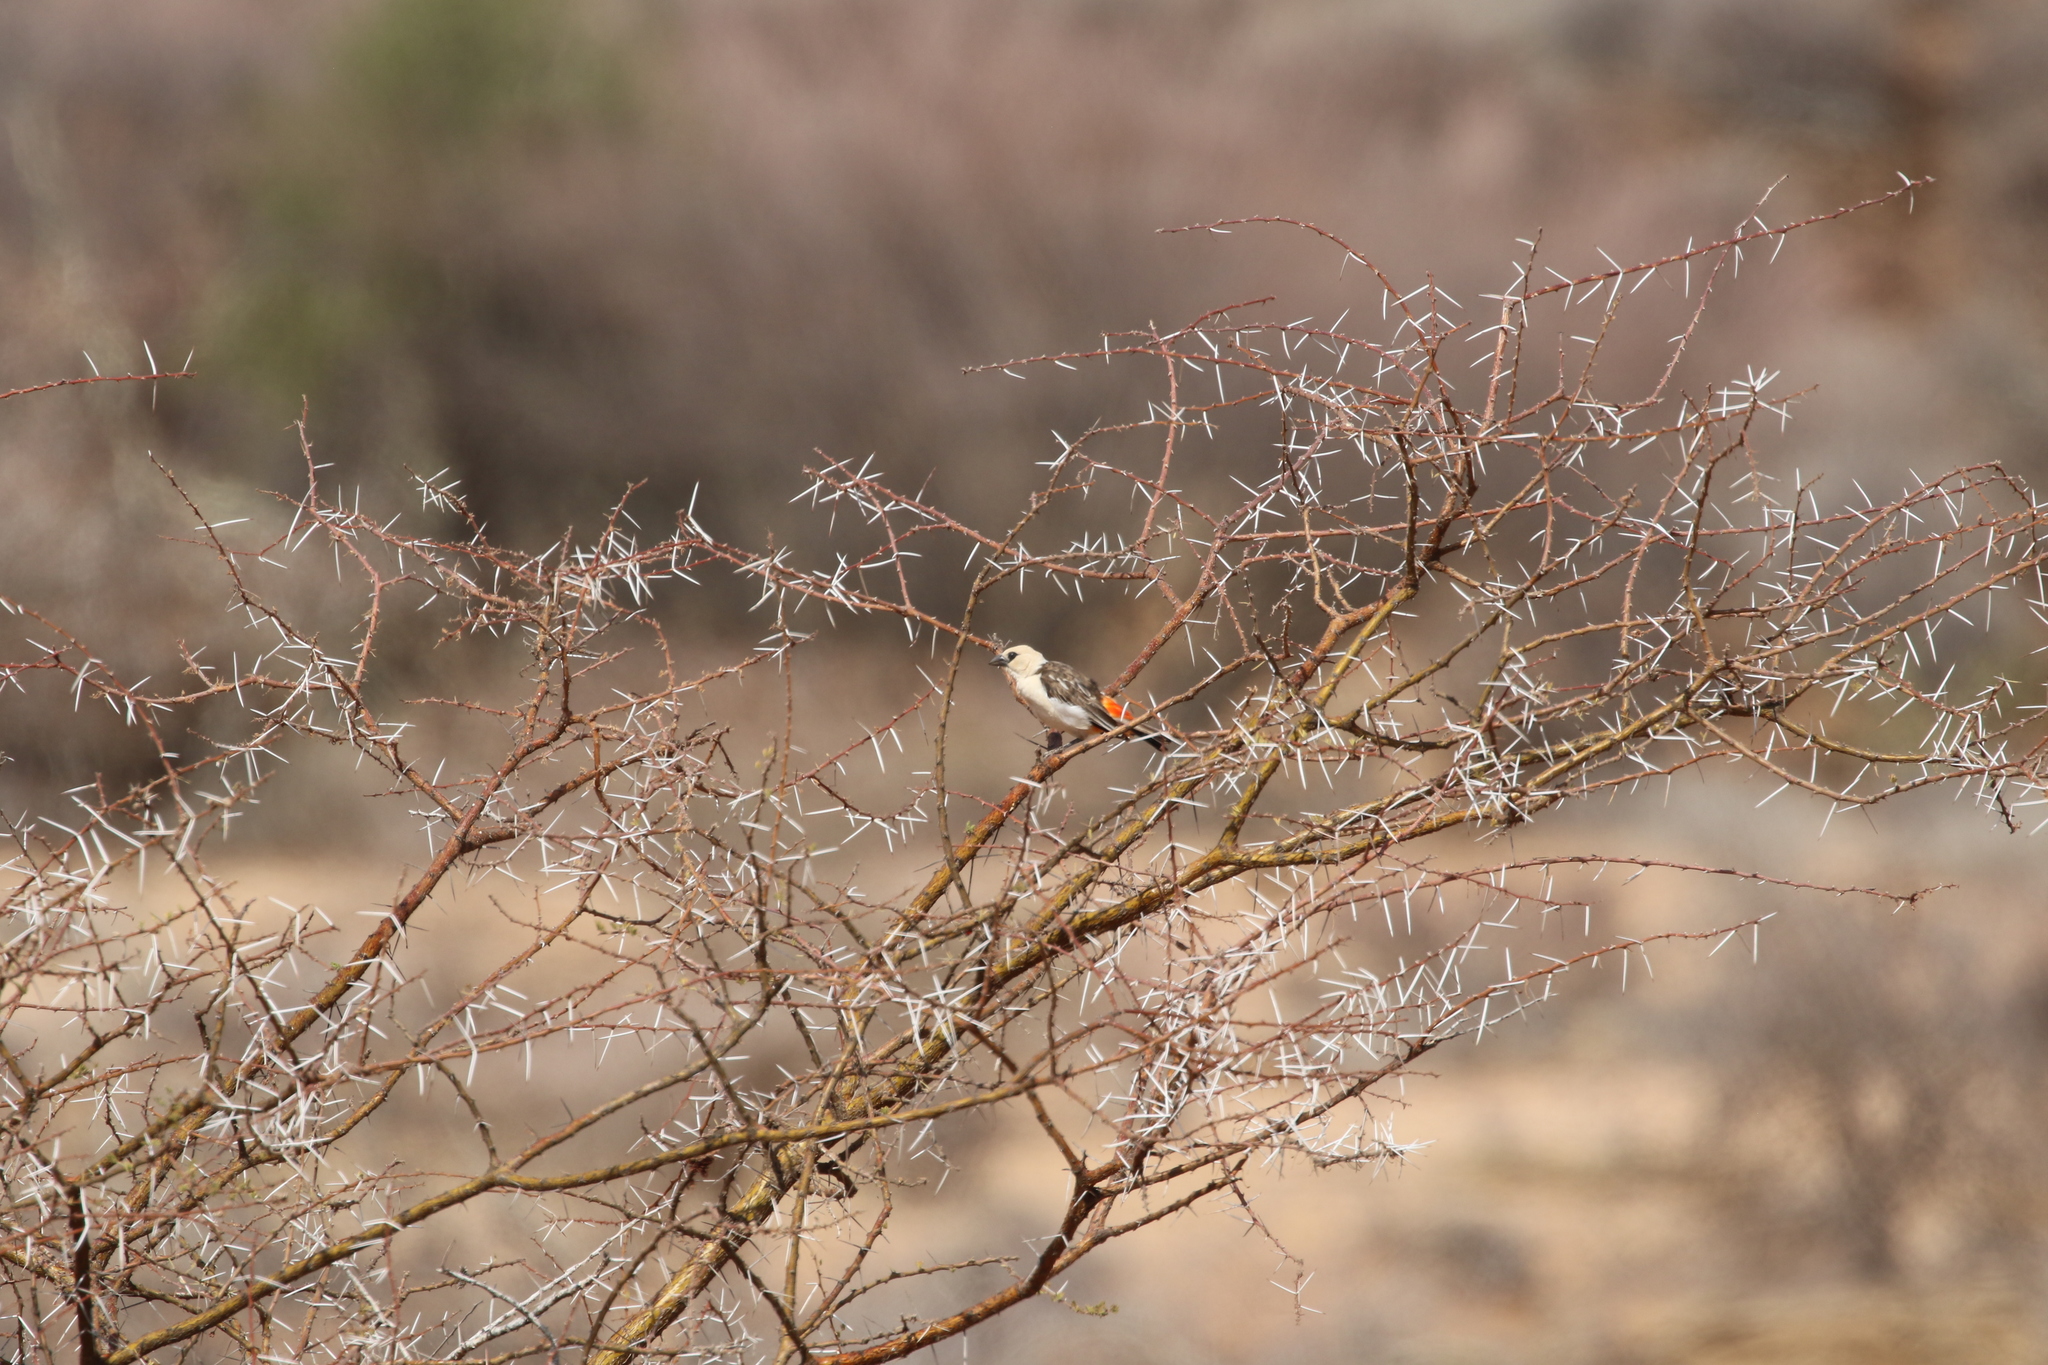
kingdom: Animalia
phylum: Chordata
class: Aves
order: Passeriformes
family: Ploceidae
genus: Dinemellia
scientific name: Dinemellia dinemelli
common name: White-headed buffalo weaver
